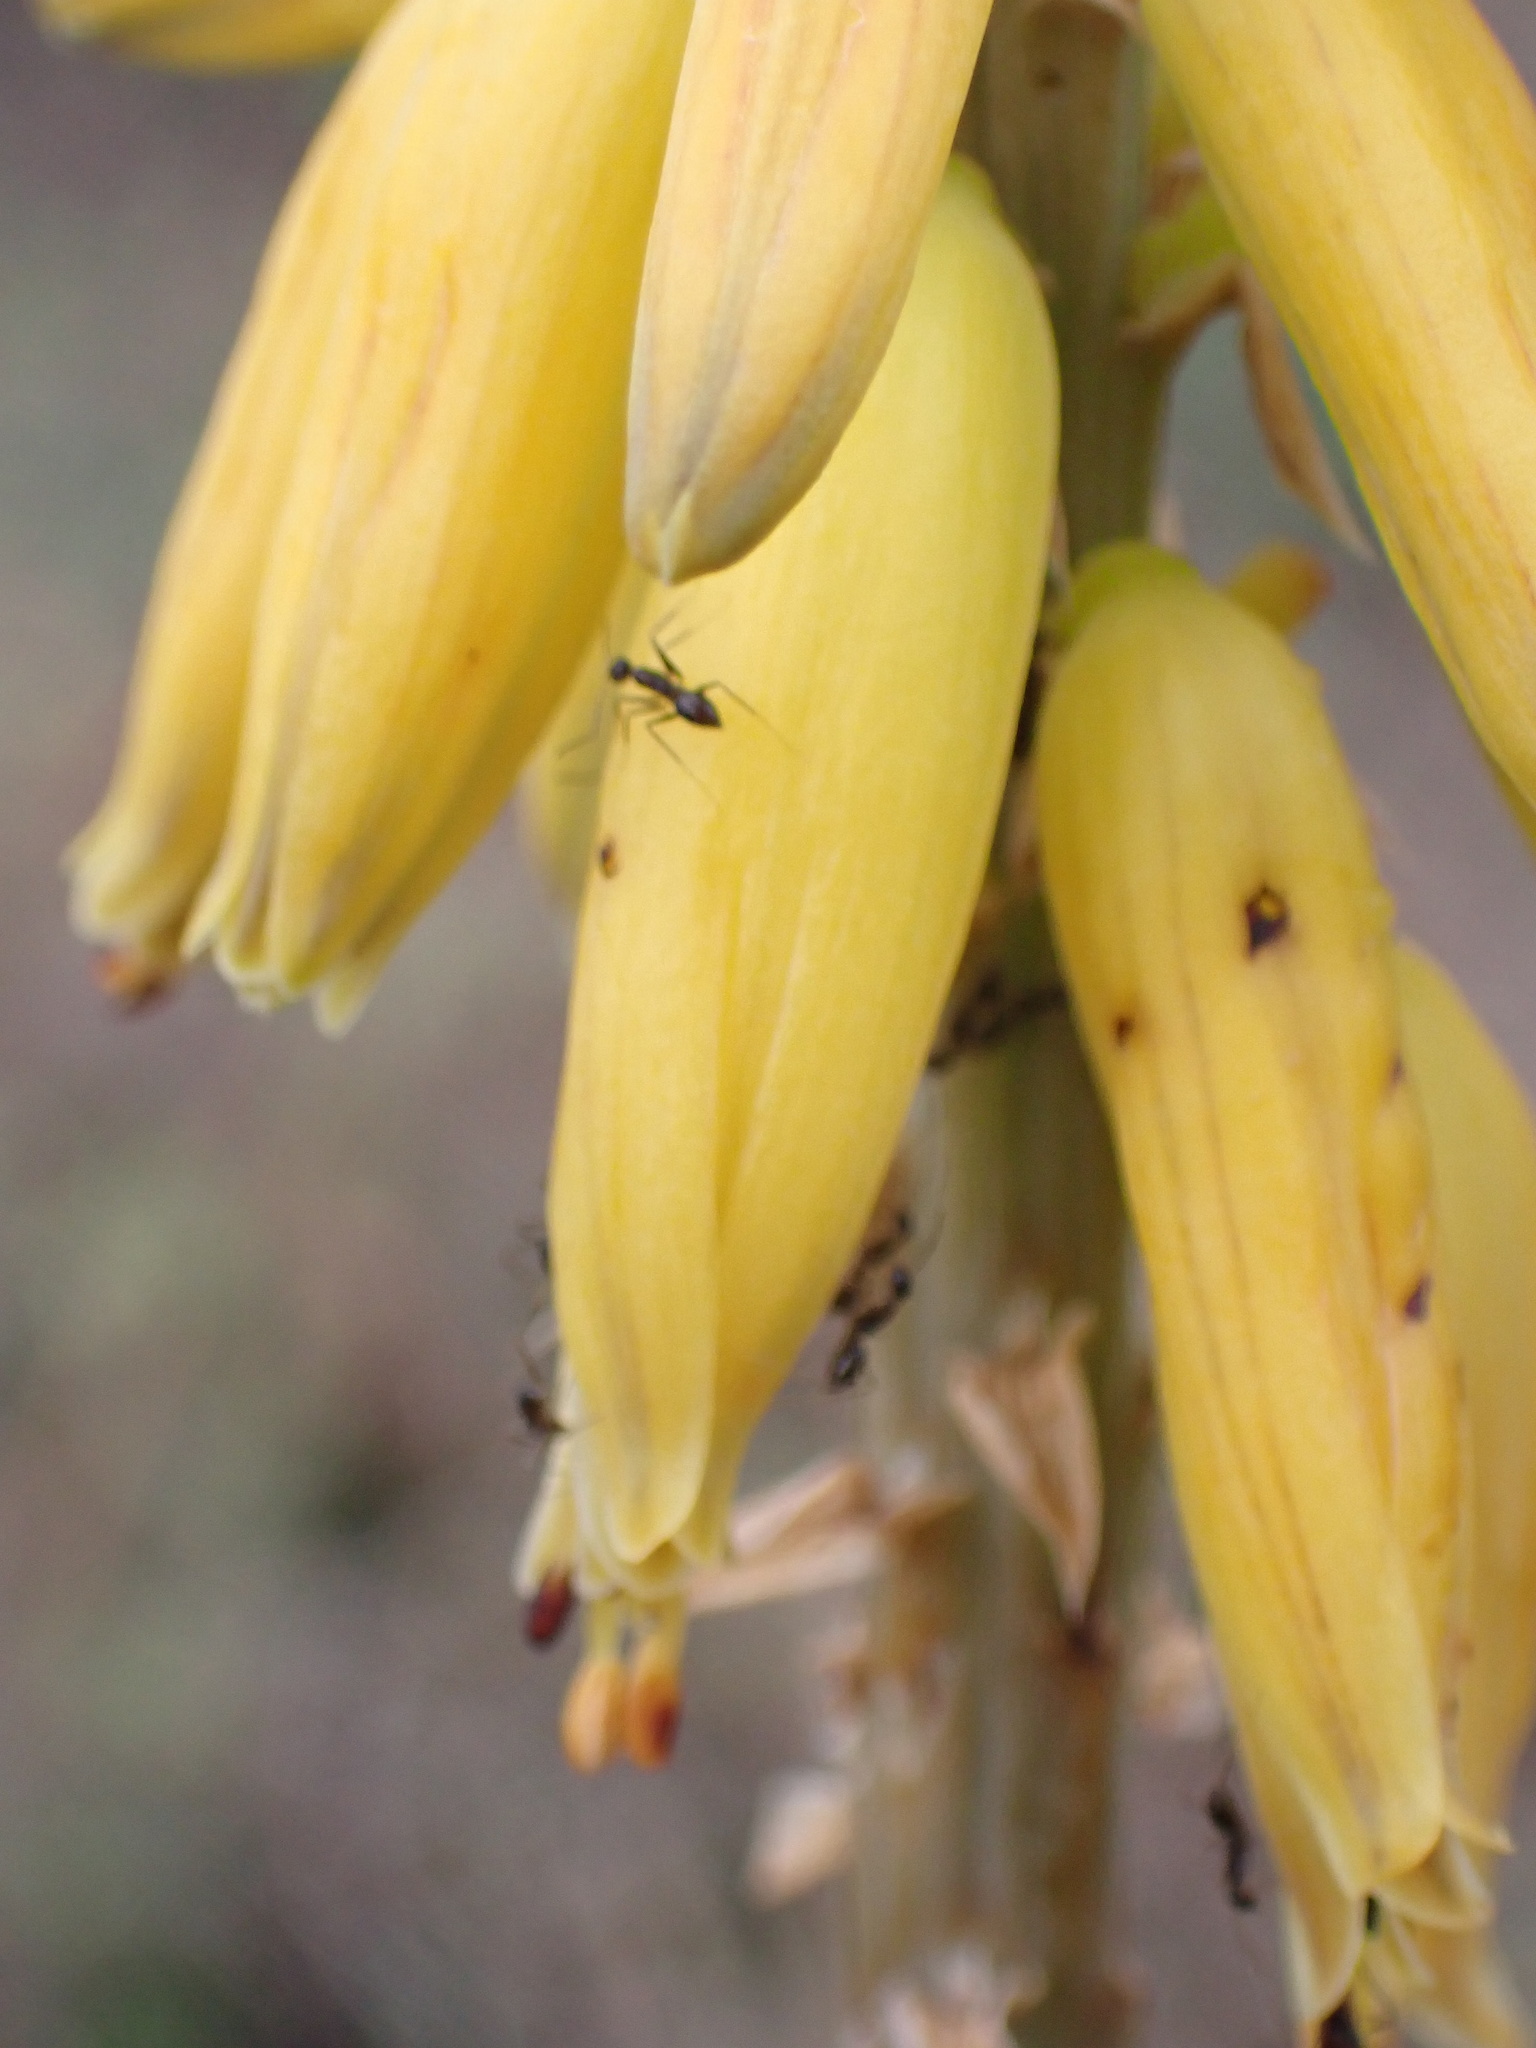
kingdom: Plantae
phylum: Tracheophyta
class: Liliopsida
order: Asparagales
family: Asphodelaceae
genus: Aloe
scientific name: Aloe vera
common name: Barbados aloe
